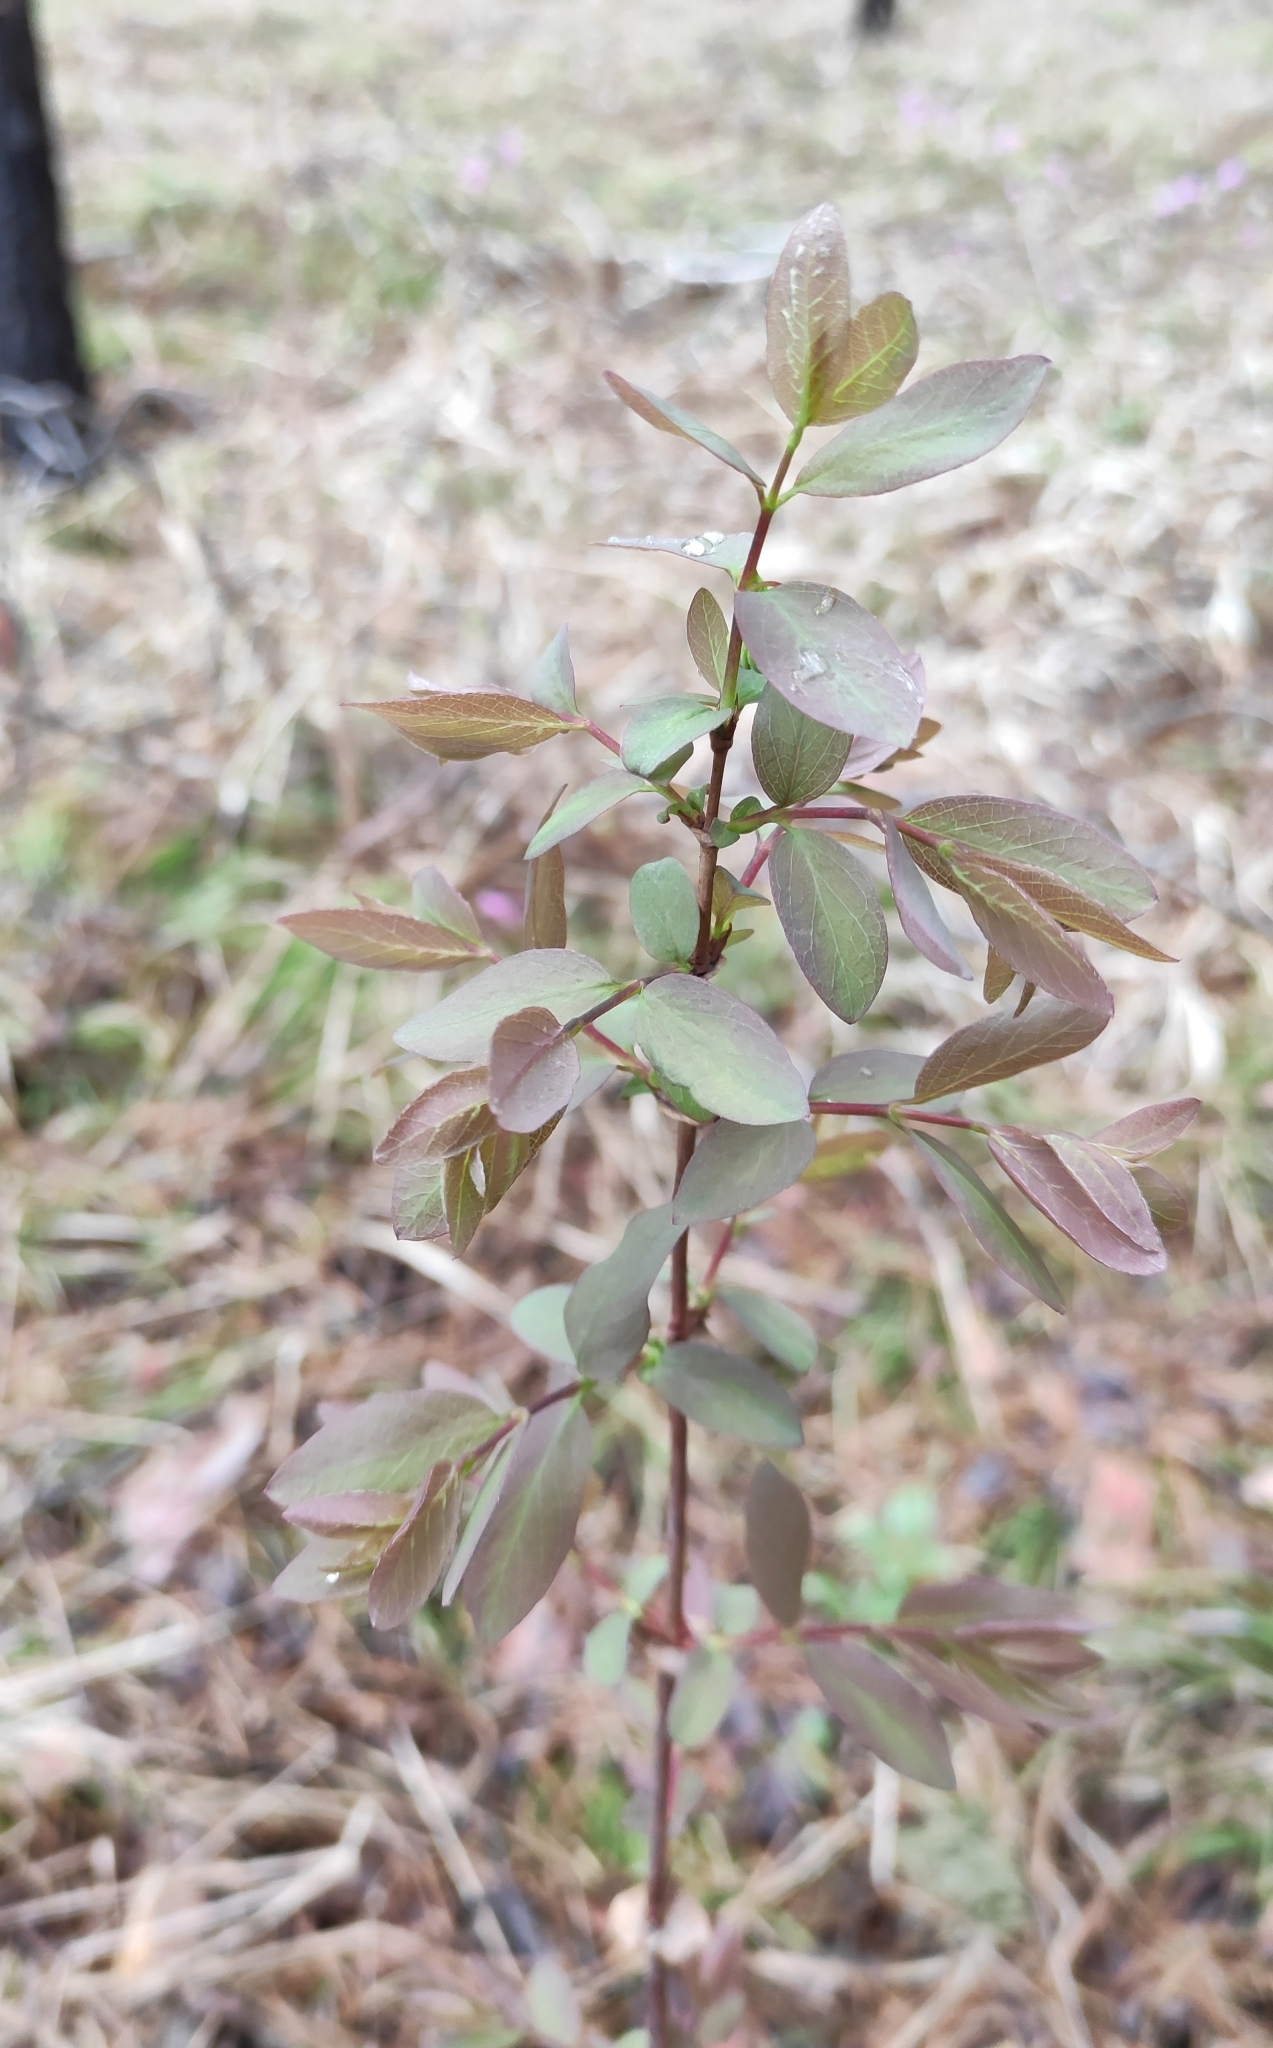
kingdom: Plantae
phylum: Tracheophyta
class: Magnoliopsida
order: Dipsacales
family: Caprifoliaceae
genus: Lonicera
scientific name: Lonicera caerulea
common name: Blue honeysuckle
